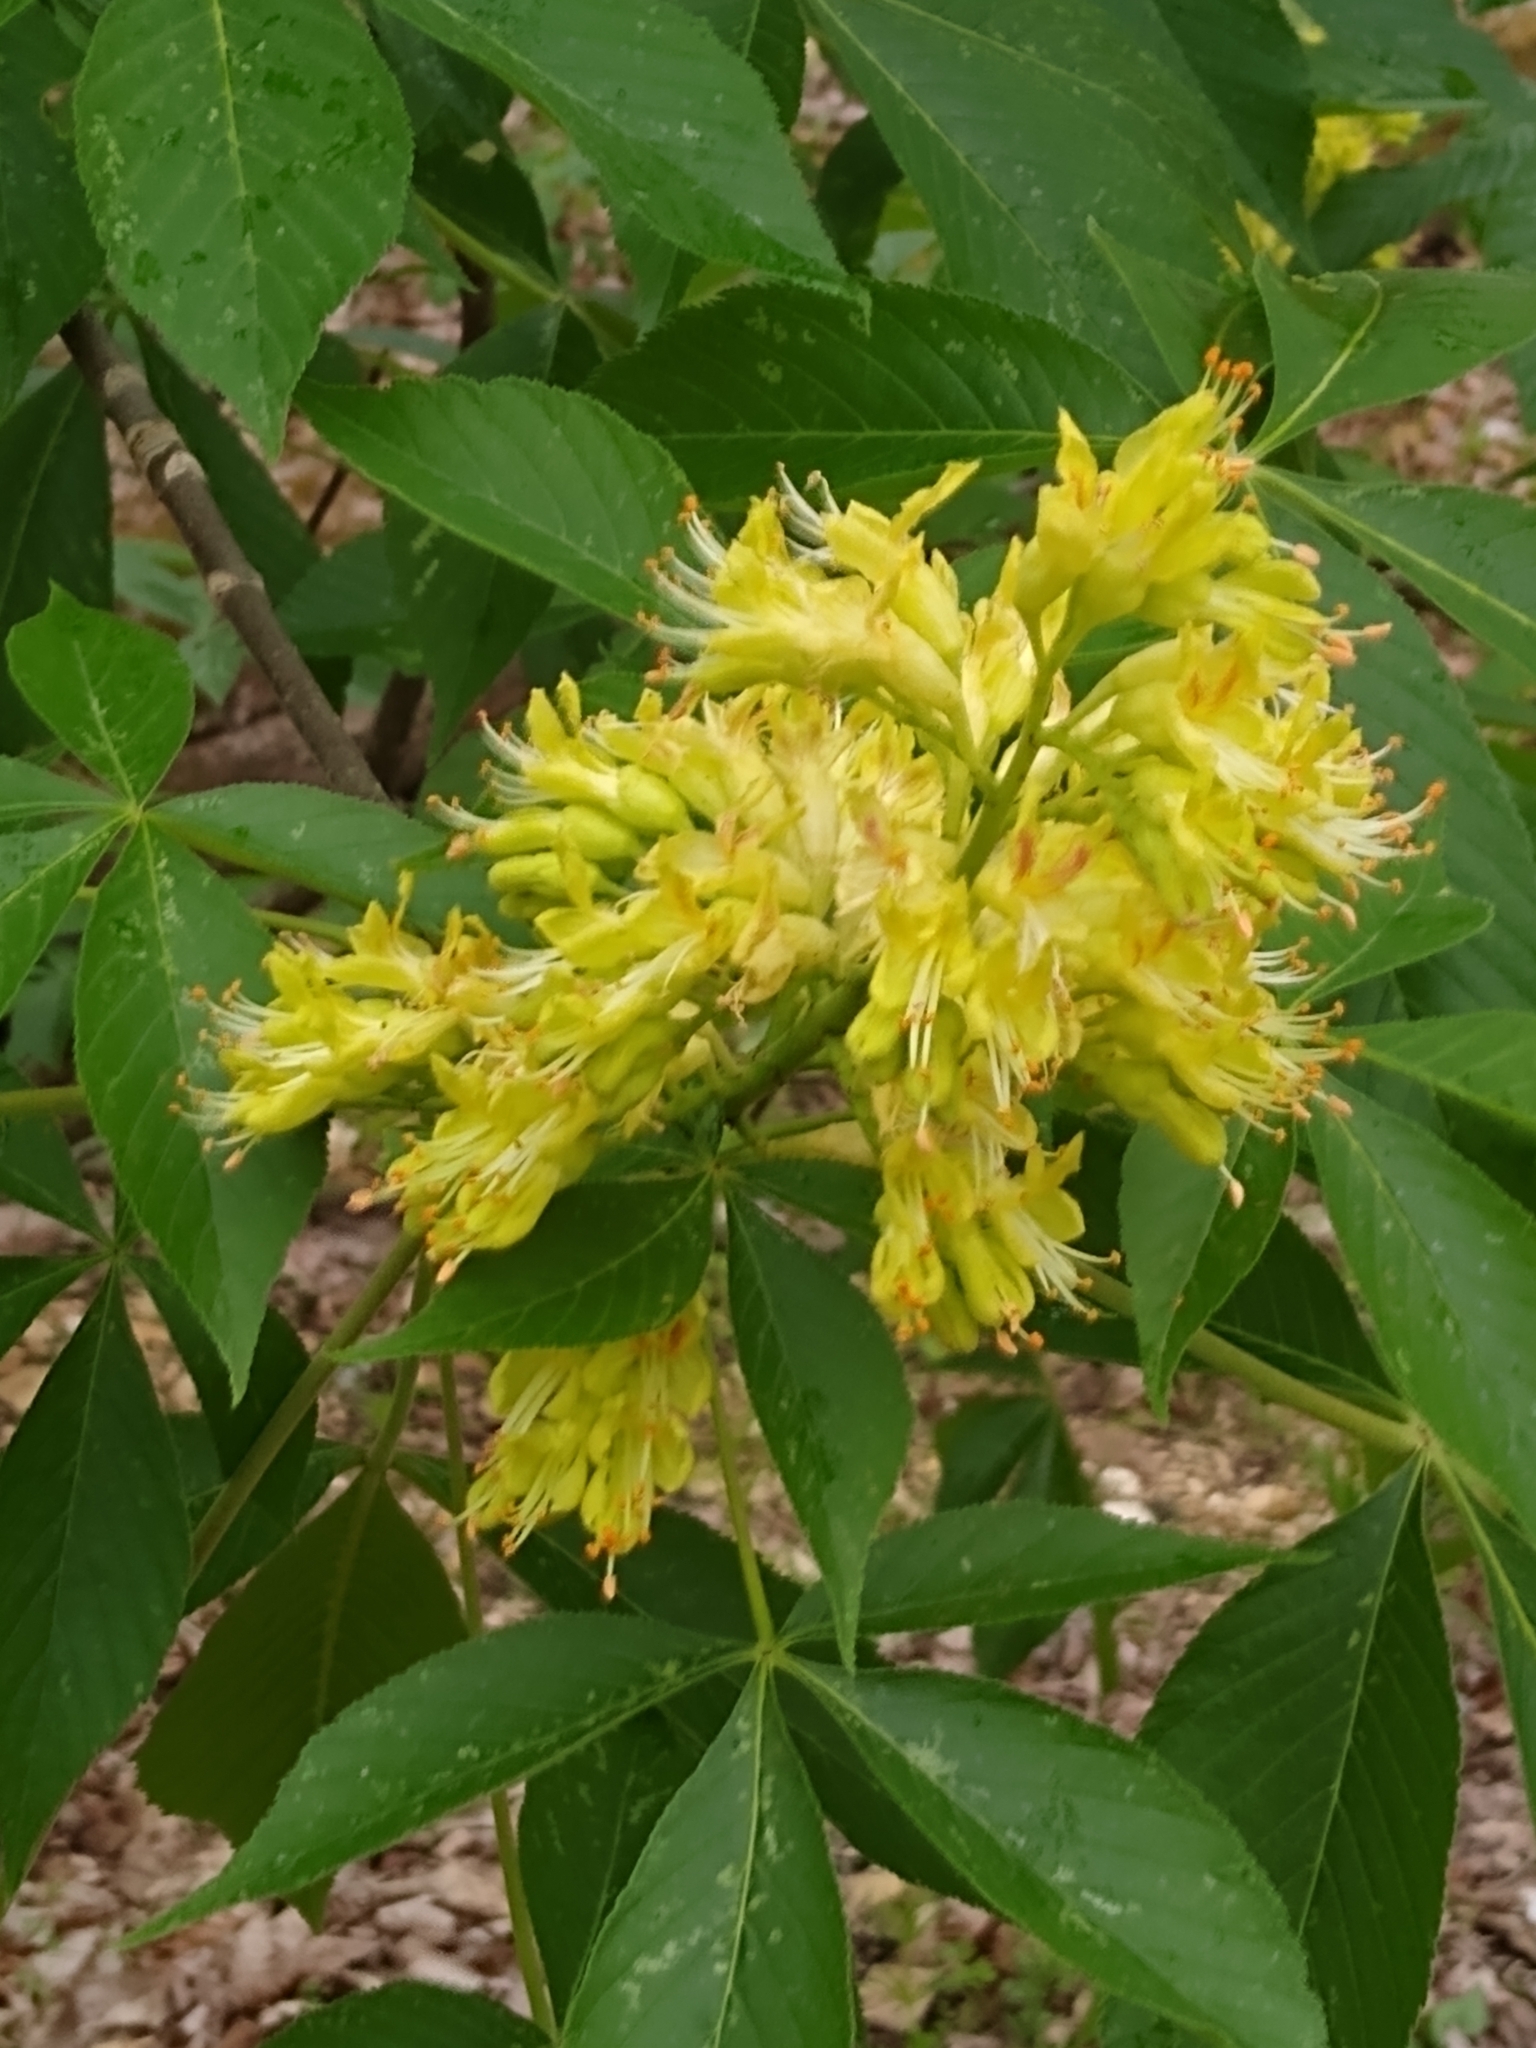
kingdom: Plantae
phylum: Tracheophyta
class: Magnoliopsida
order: Sapindales
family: Sapindaceae
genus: Aesculus
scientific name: Aesculus glabra
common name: Ohio buckeye
